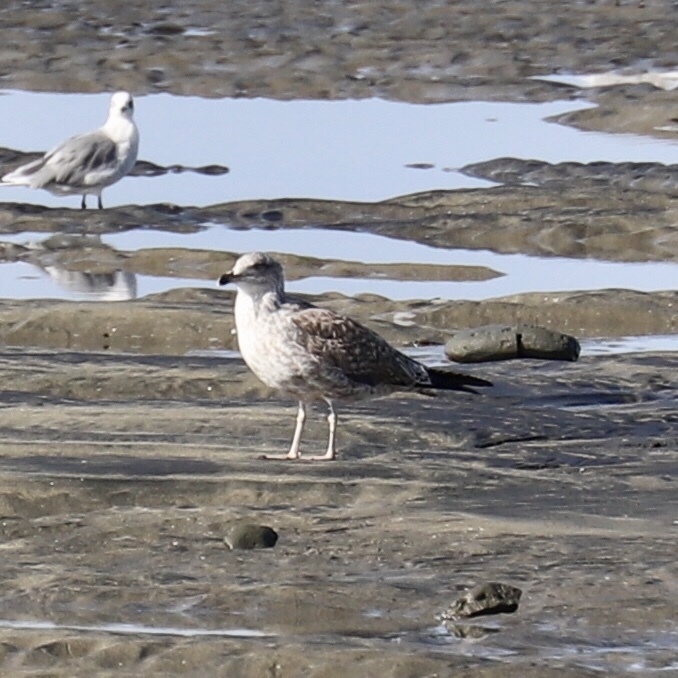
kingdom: Animalia
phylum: Chordata
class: Aves
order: Charadriiformes
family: Laridae
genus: Larus
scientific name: Larus argentatus
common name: Herring gull
